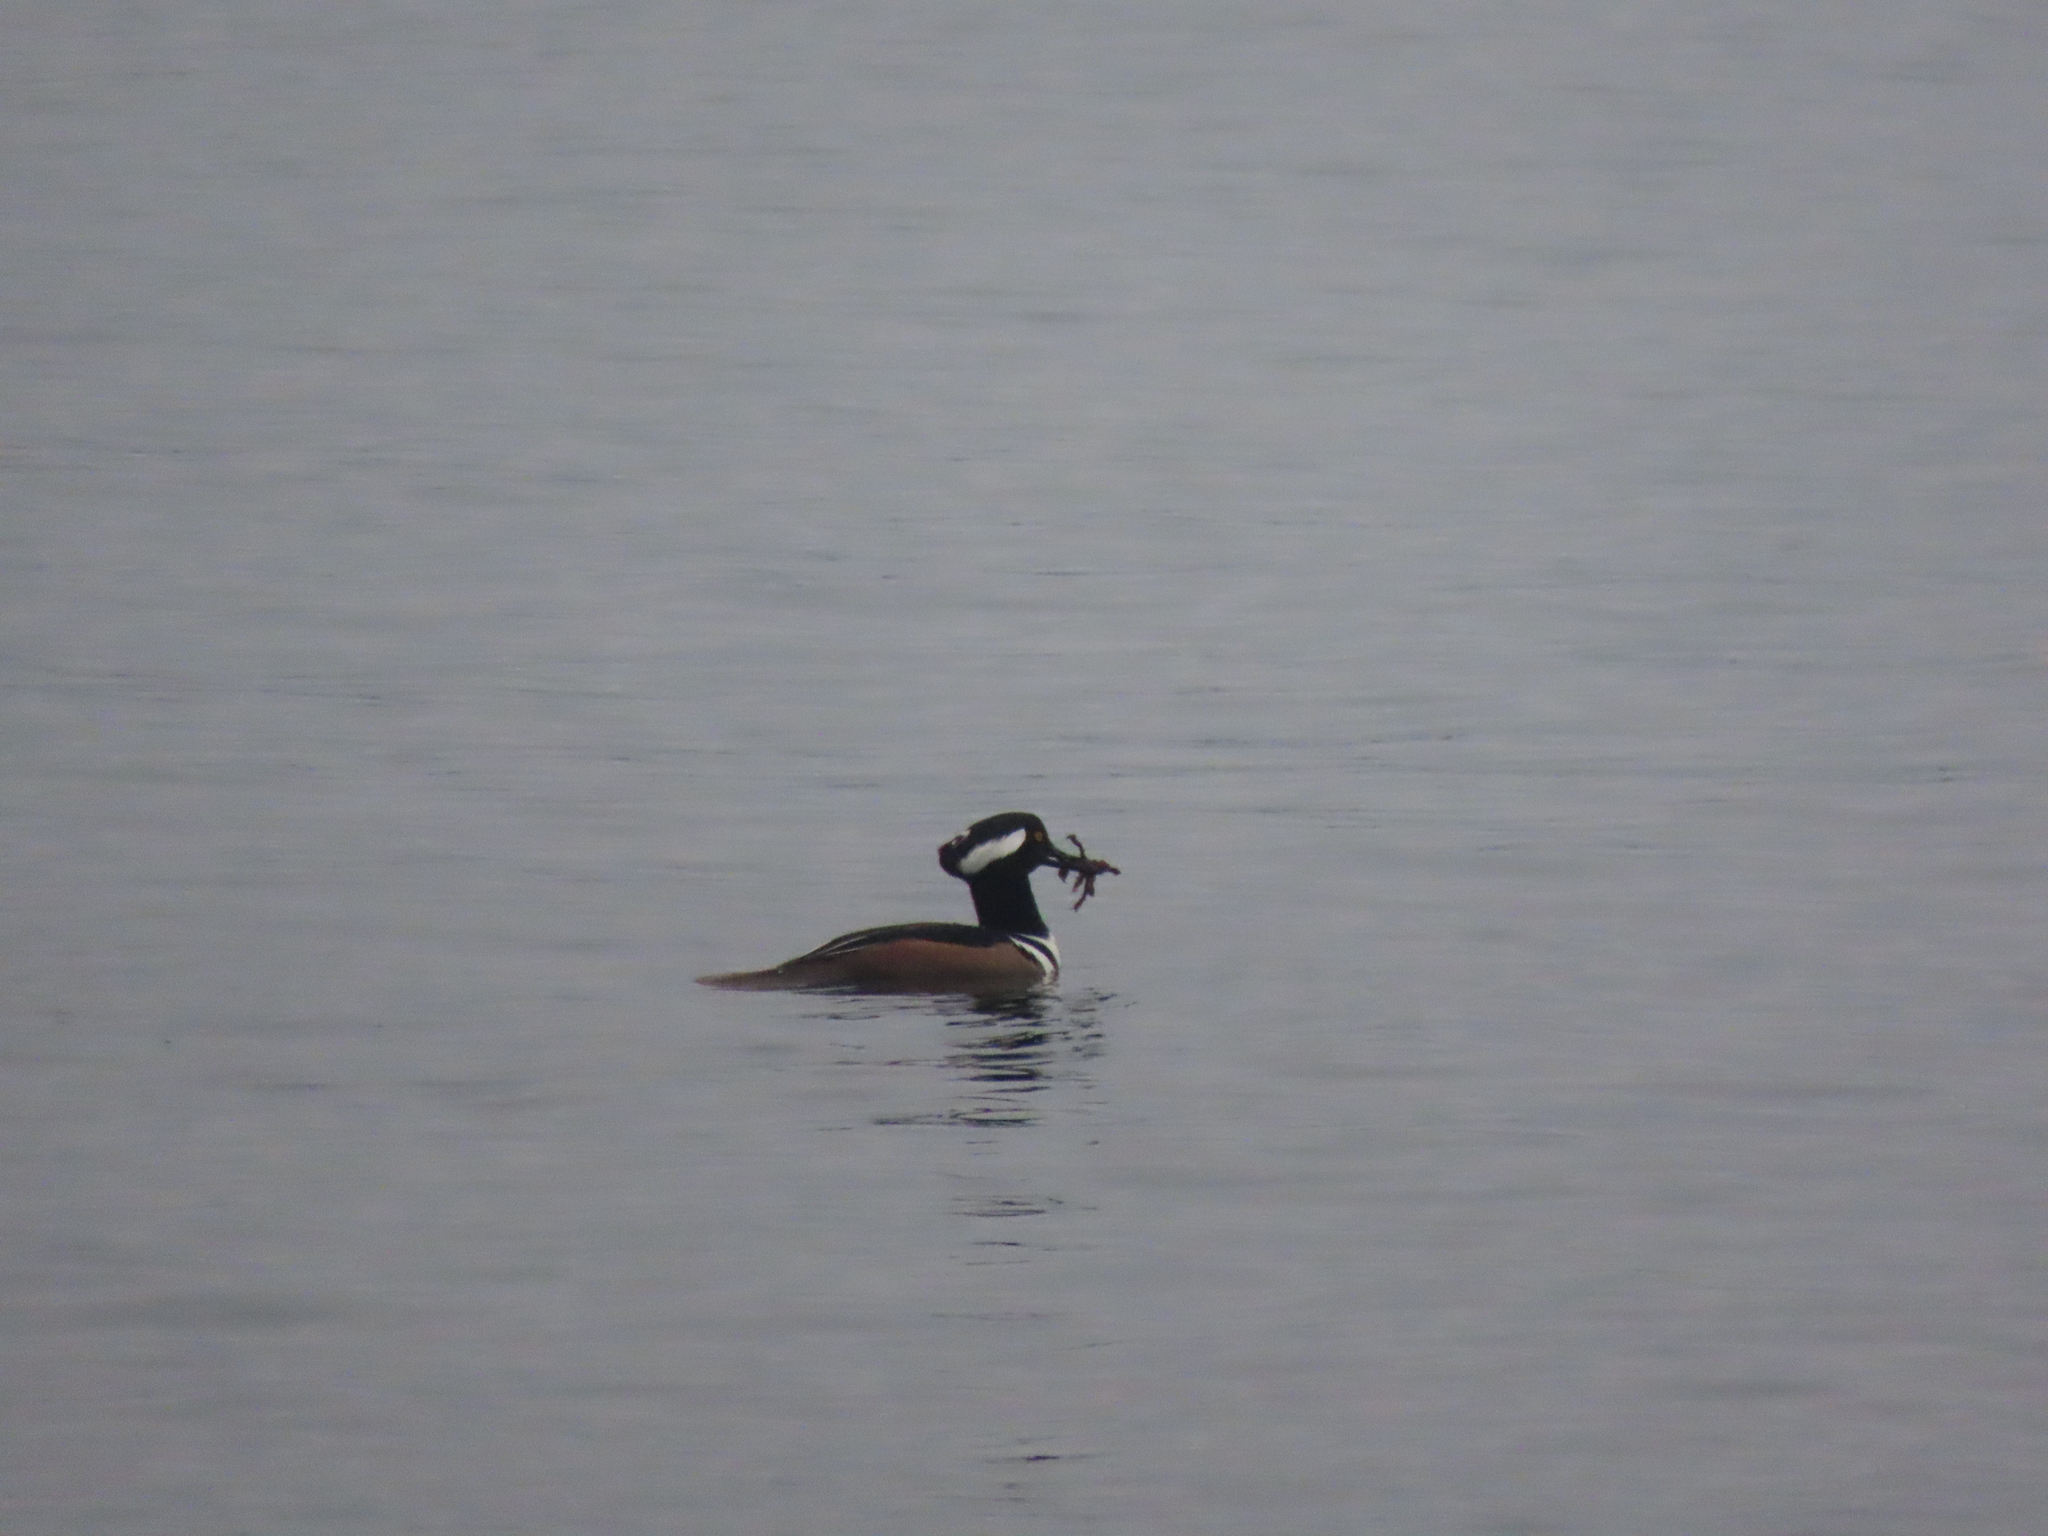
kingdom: Animalia
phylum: Chordata
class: Aves
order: Anseriformes
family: Anatidae
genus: Lophodytes
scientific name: Lophodytes cucullatus
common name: Hooded merganser
